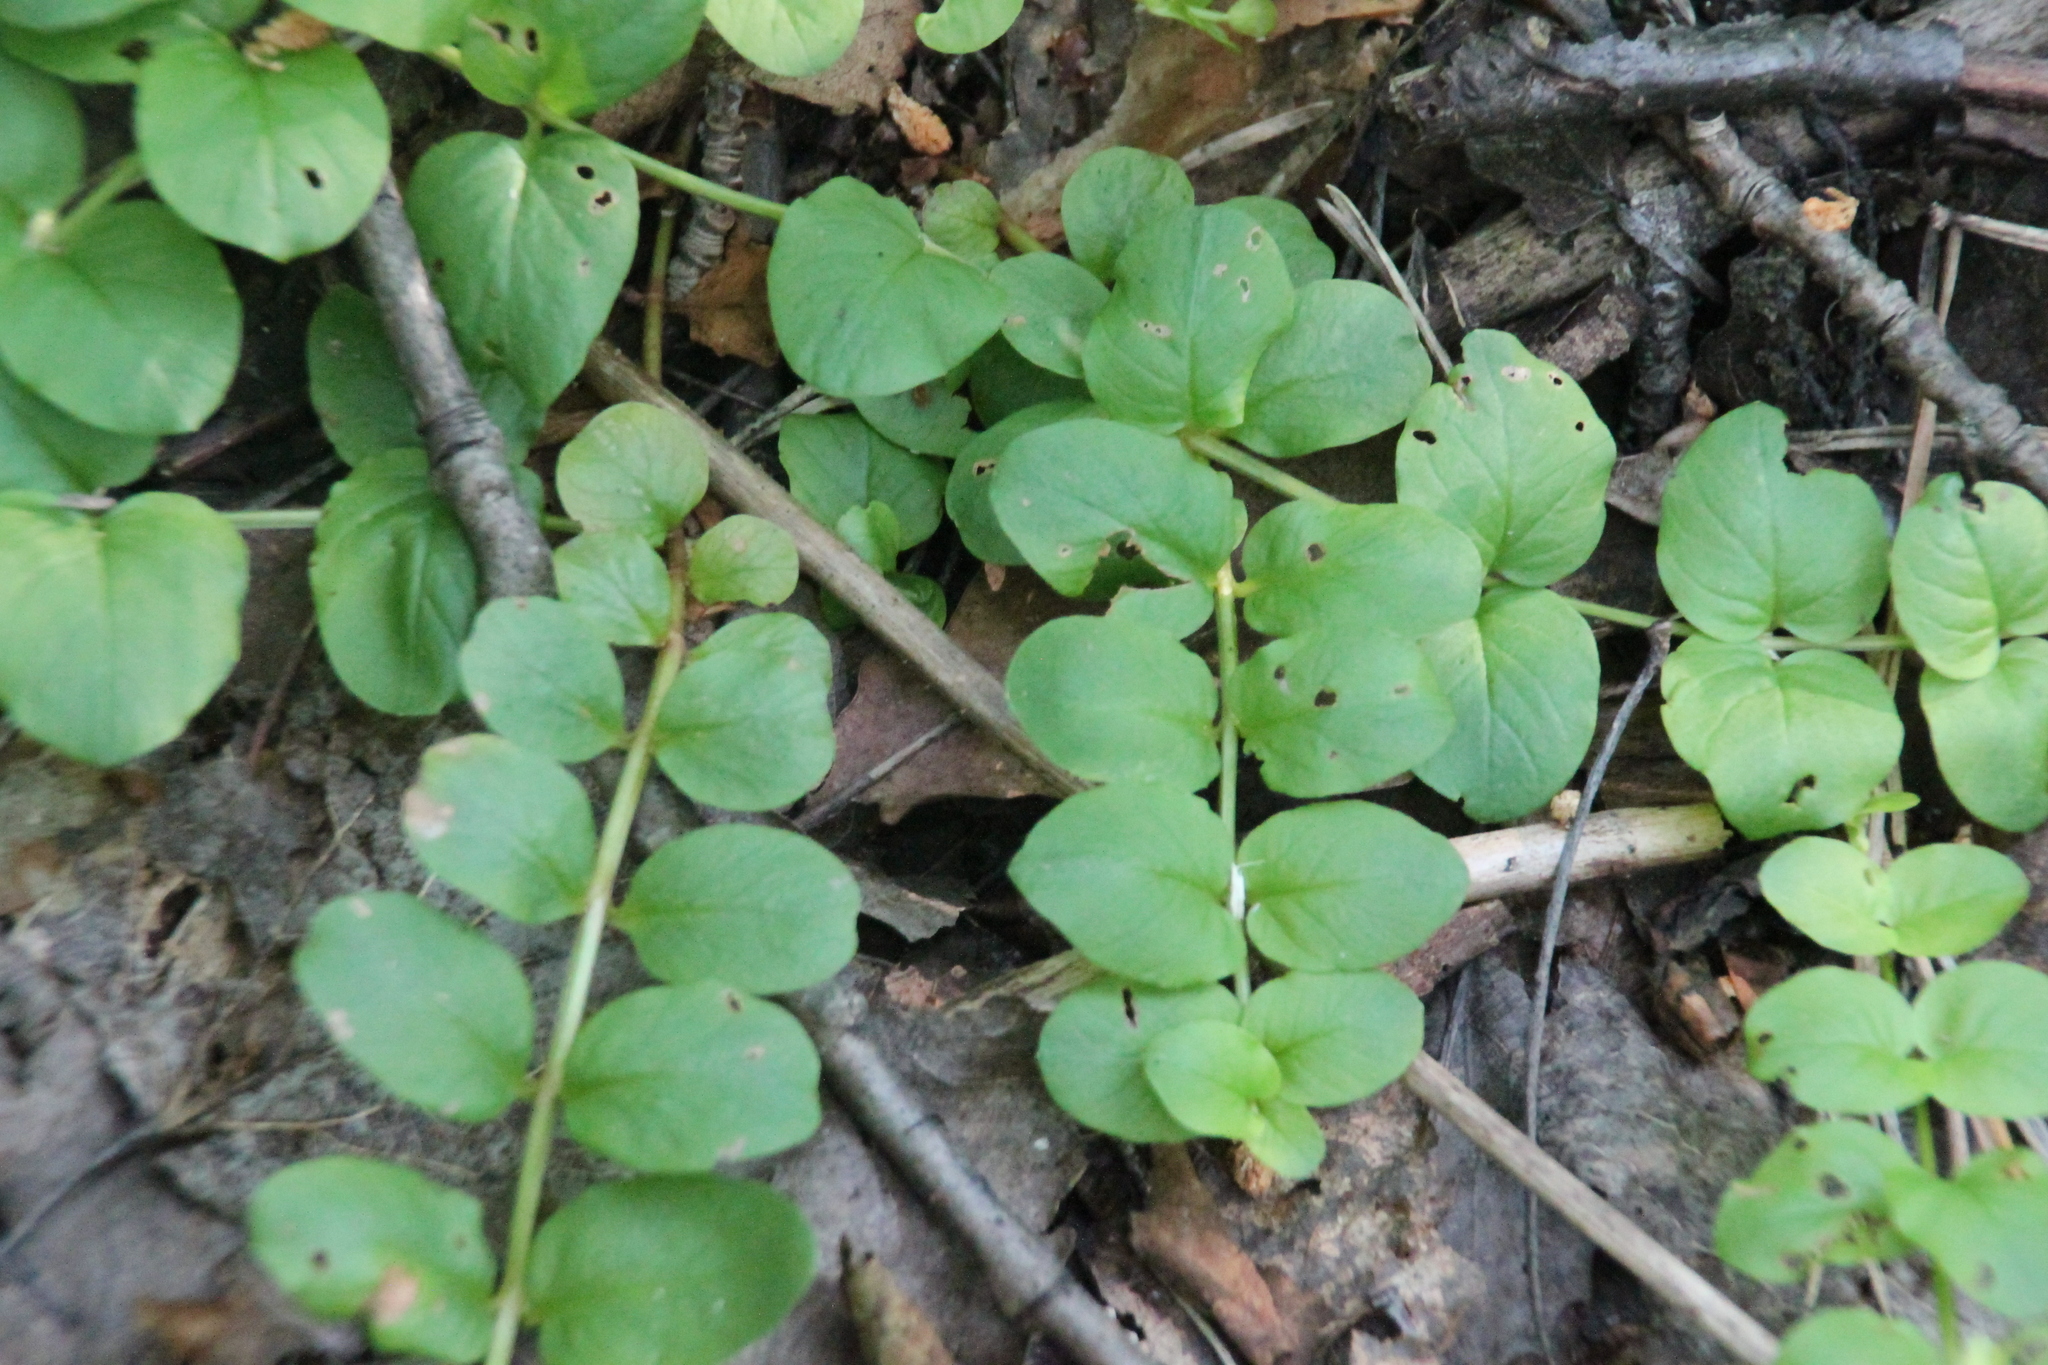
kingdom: Plantae
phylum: Tracheophyta
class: Magnoliopsida
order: Ericales
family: Primulaceae
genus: Lysimachia
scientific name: Lysimachia nummularia
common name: Moneywort
